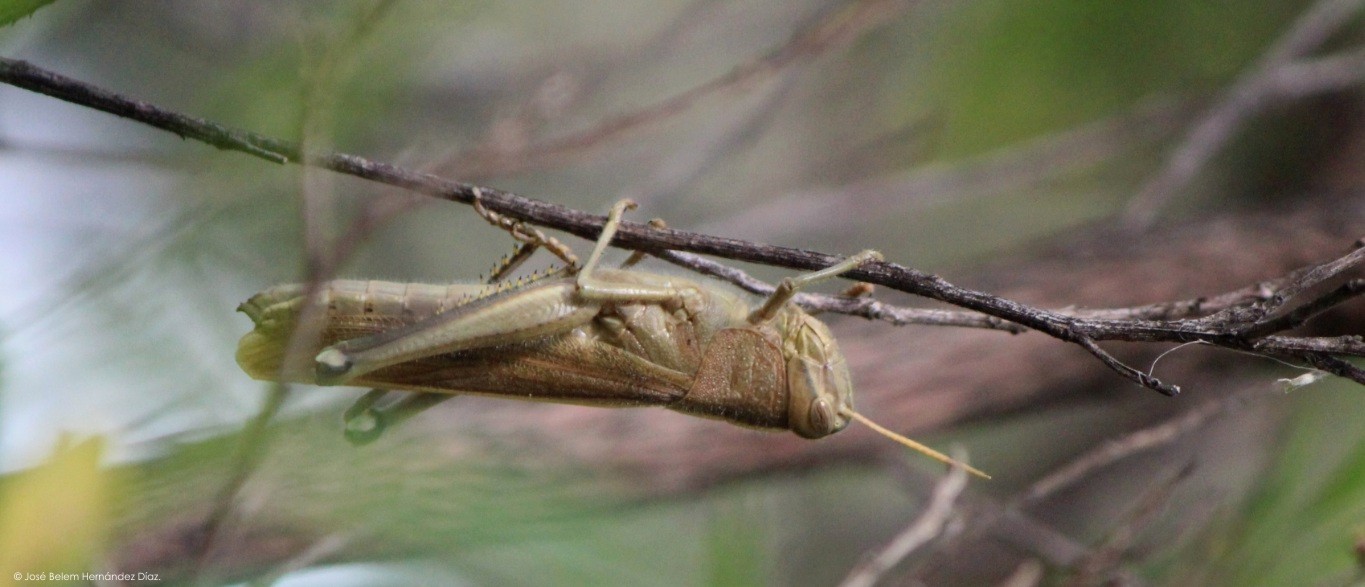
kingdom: Animalia
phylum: Arthropoda
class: Insecta
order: Orthoptera
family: Acrididae
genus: Schistocerca
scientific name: Schistocerca cohni
